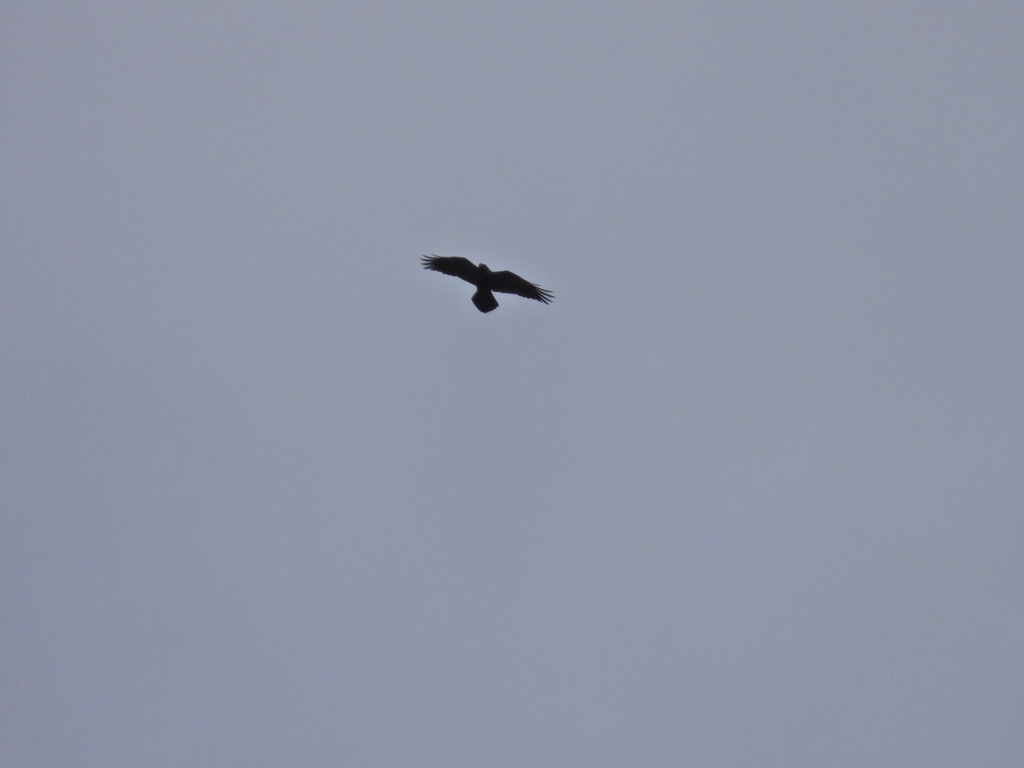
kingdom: Animalia
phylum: Chordata
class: Aves
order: Passeriformes
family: Corvidae
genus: Corvus
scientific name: Corvus corax
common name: Common raven
